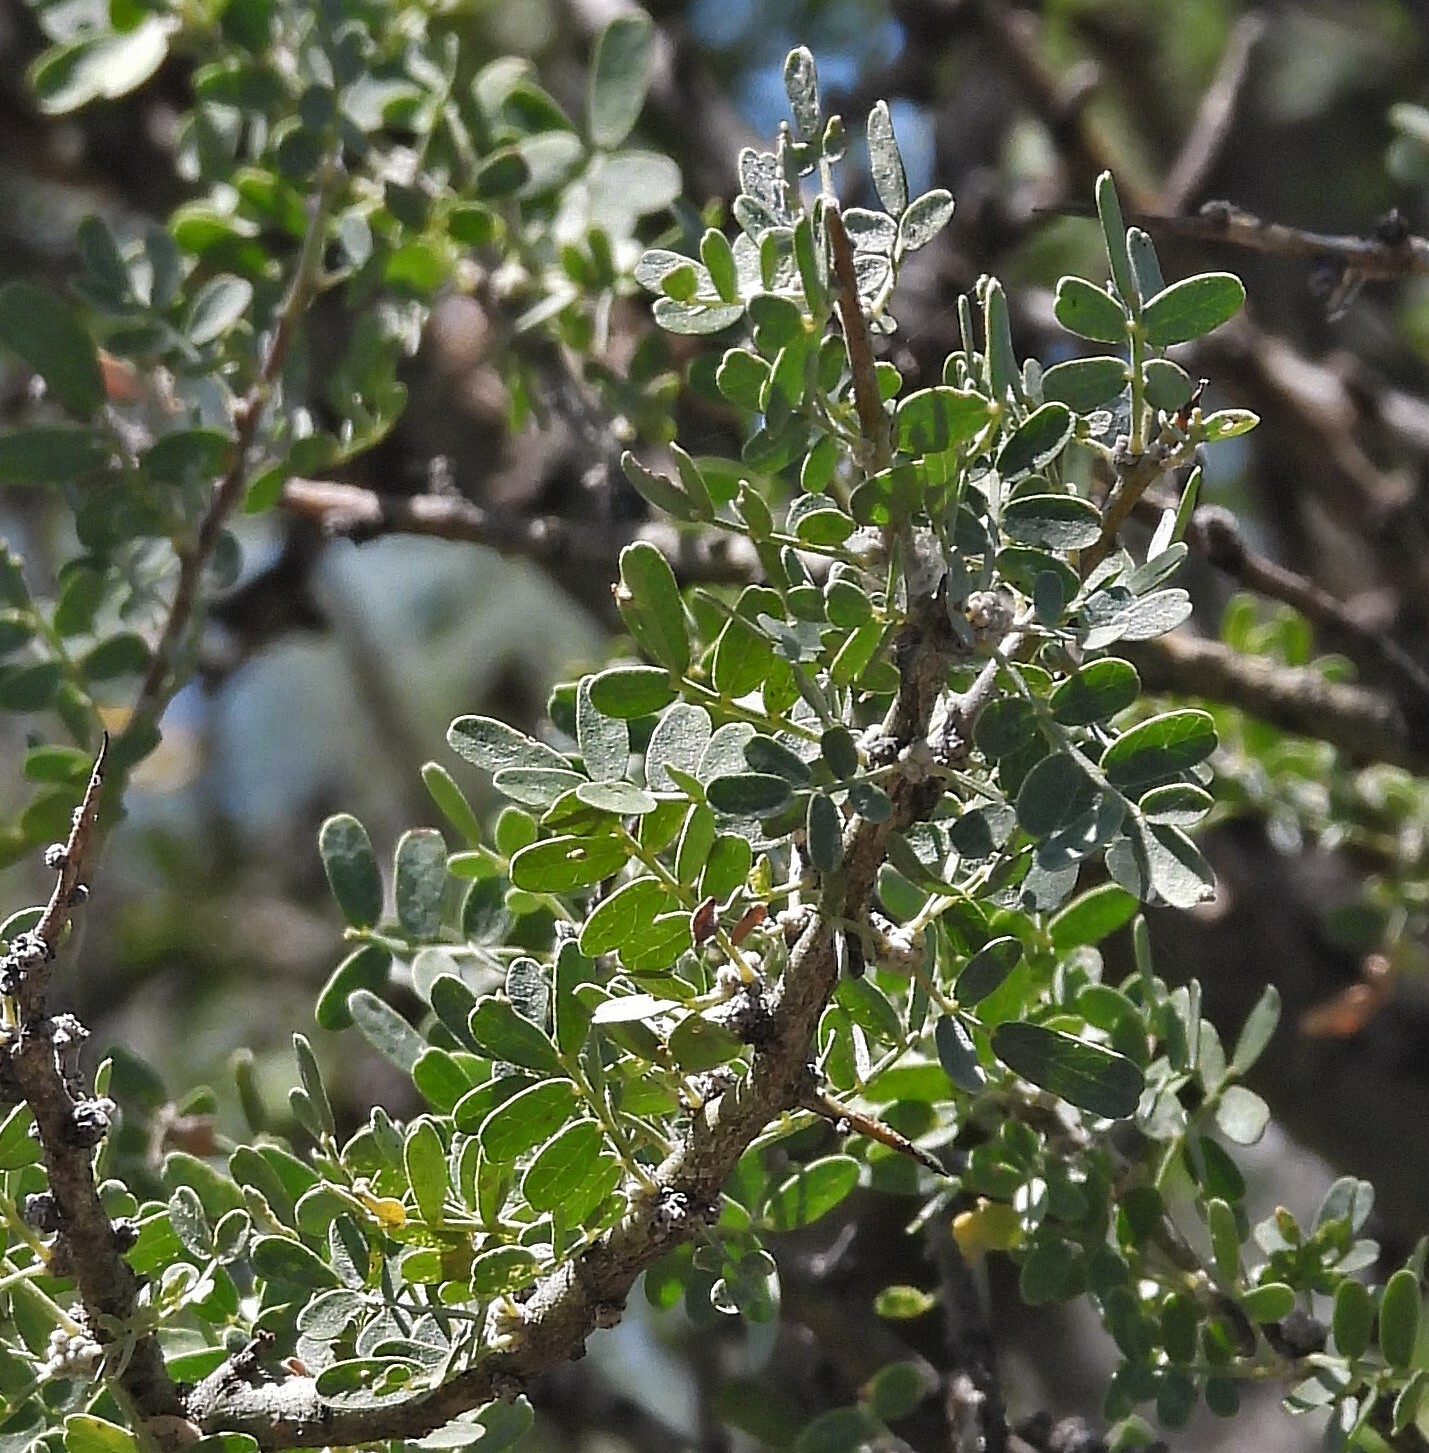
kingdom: Plantae
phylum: Tracheophyta
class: Magnoliopsida
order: Fabales
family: Fabaceae
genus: Geoffroea
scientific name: Geoffroea decorticans
